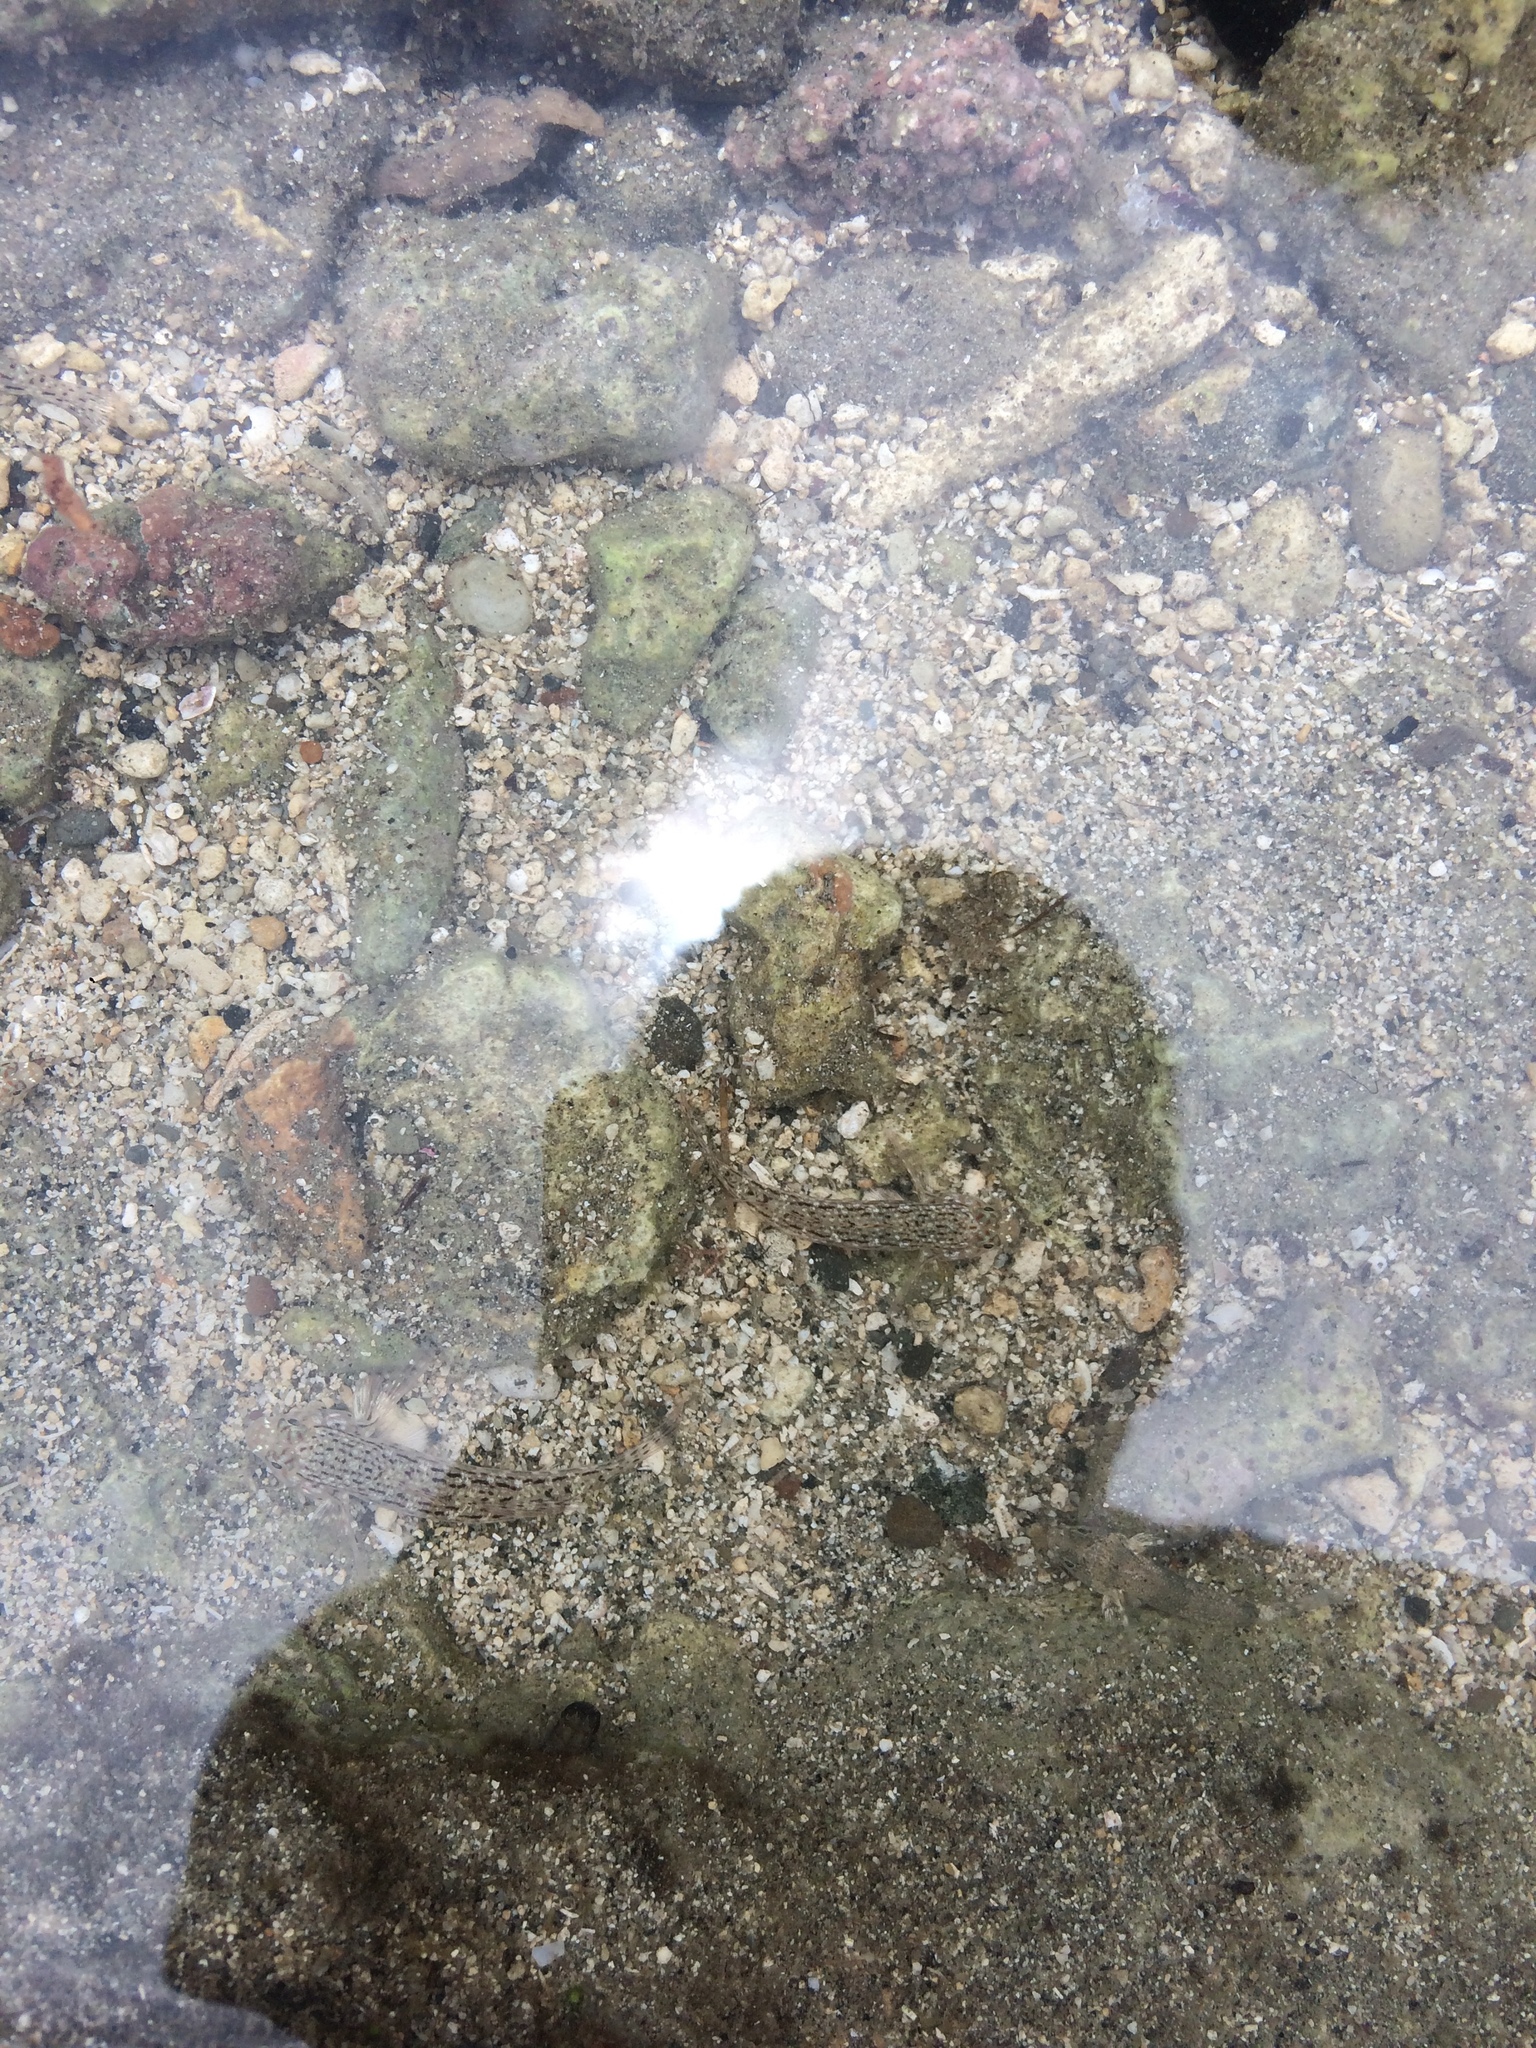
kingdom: Animalia
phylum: Chordata
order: Perciformes
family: Gobiidae
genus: Istigobius
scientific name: Istigobius ornatus
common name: Ornate goby
